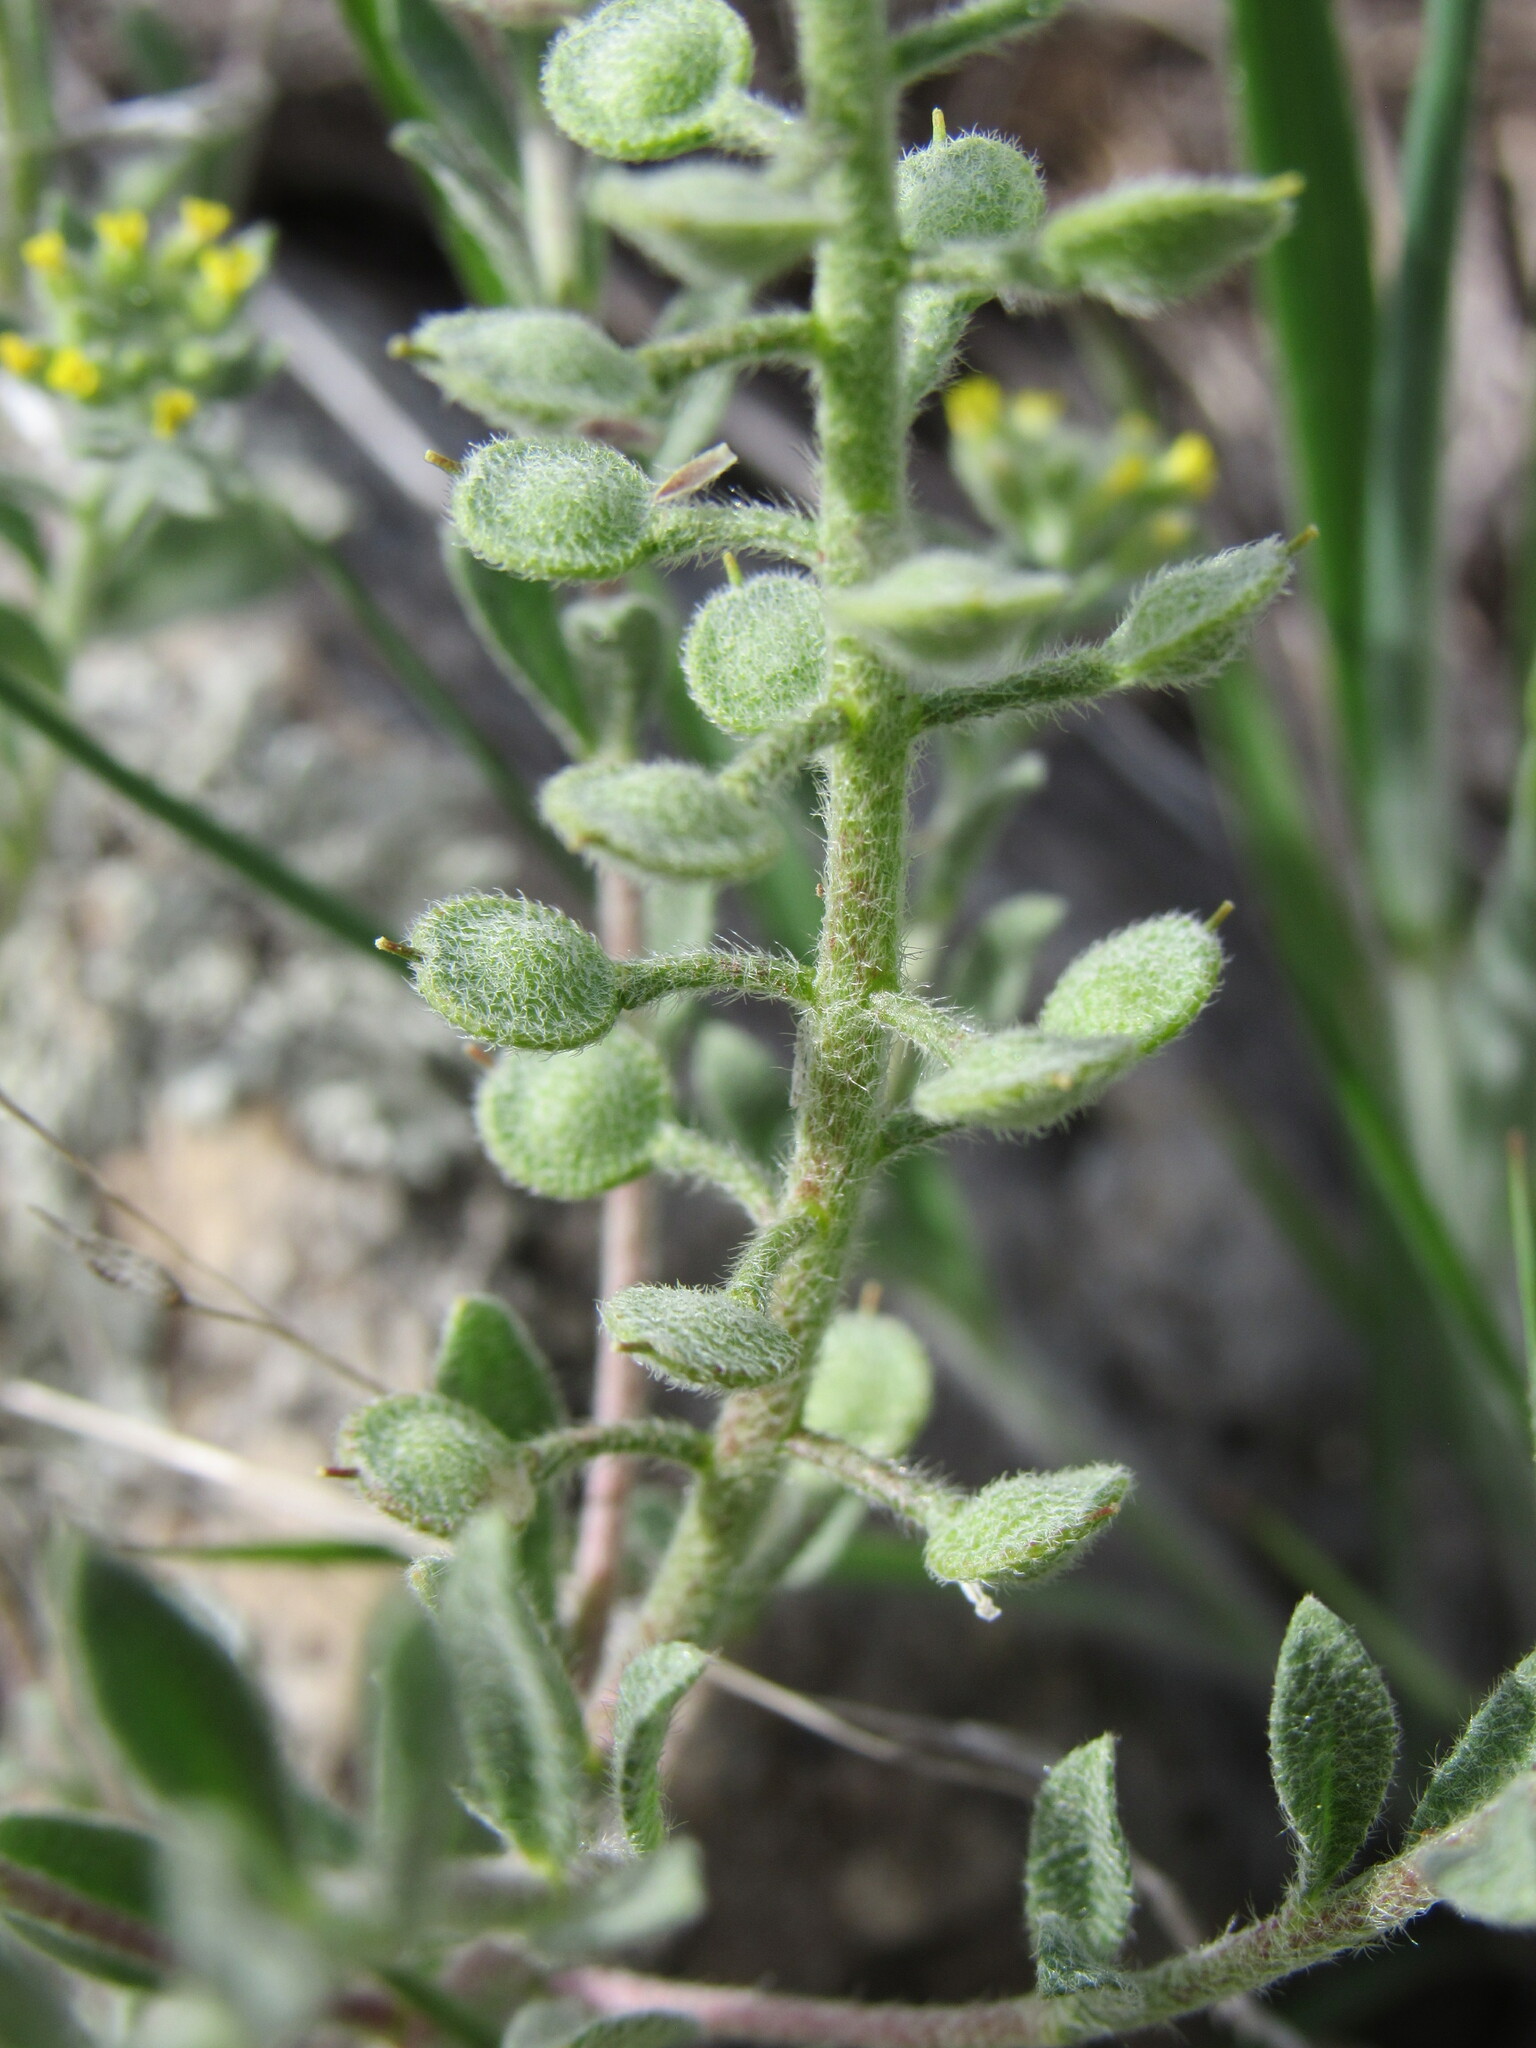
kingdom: Plantae
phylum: Tracheophyta
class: Magnoliopsida
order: Brassicales
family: Brassicaceae
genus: Alyssum
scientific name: Alyssum simplex
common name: Alyssum
